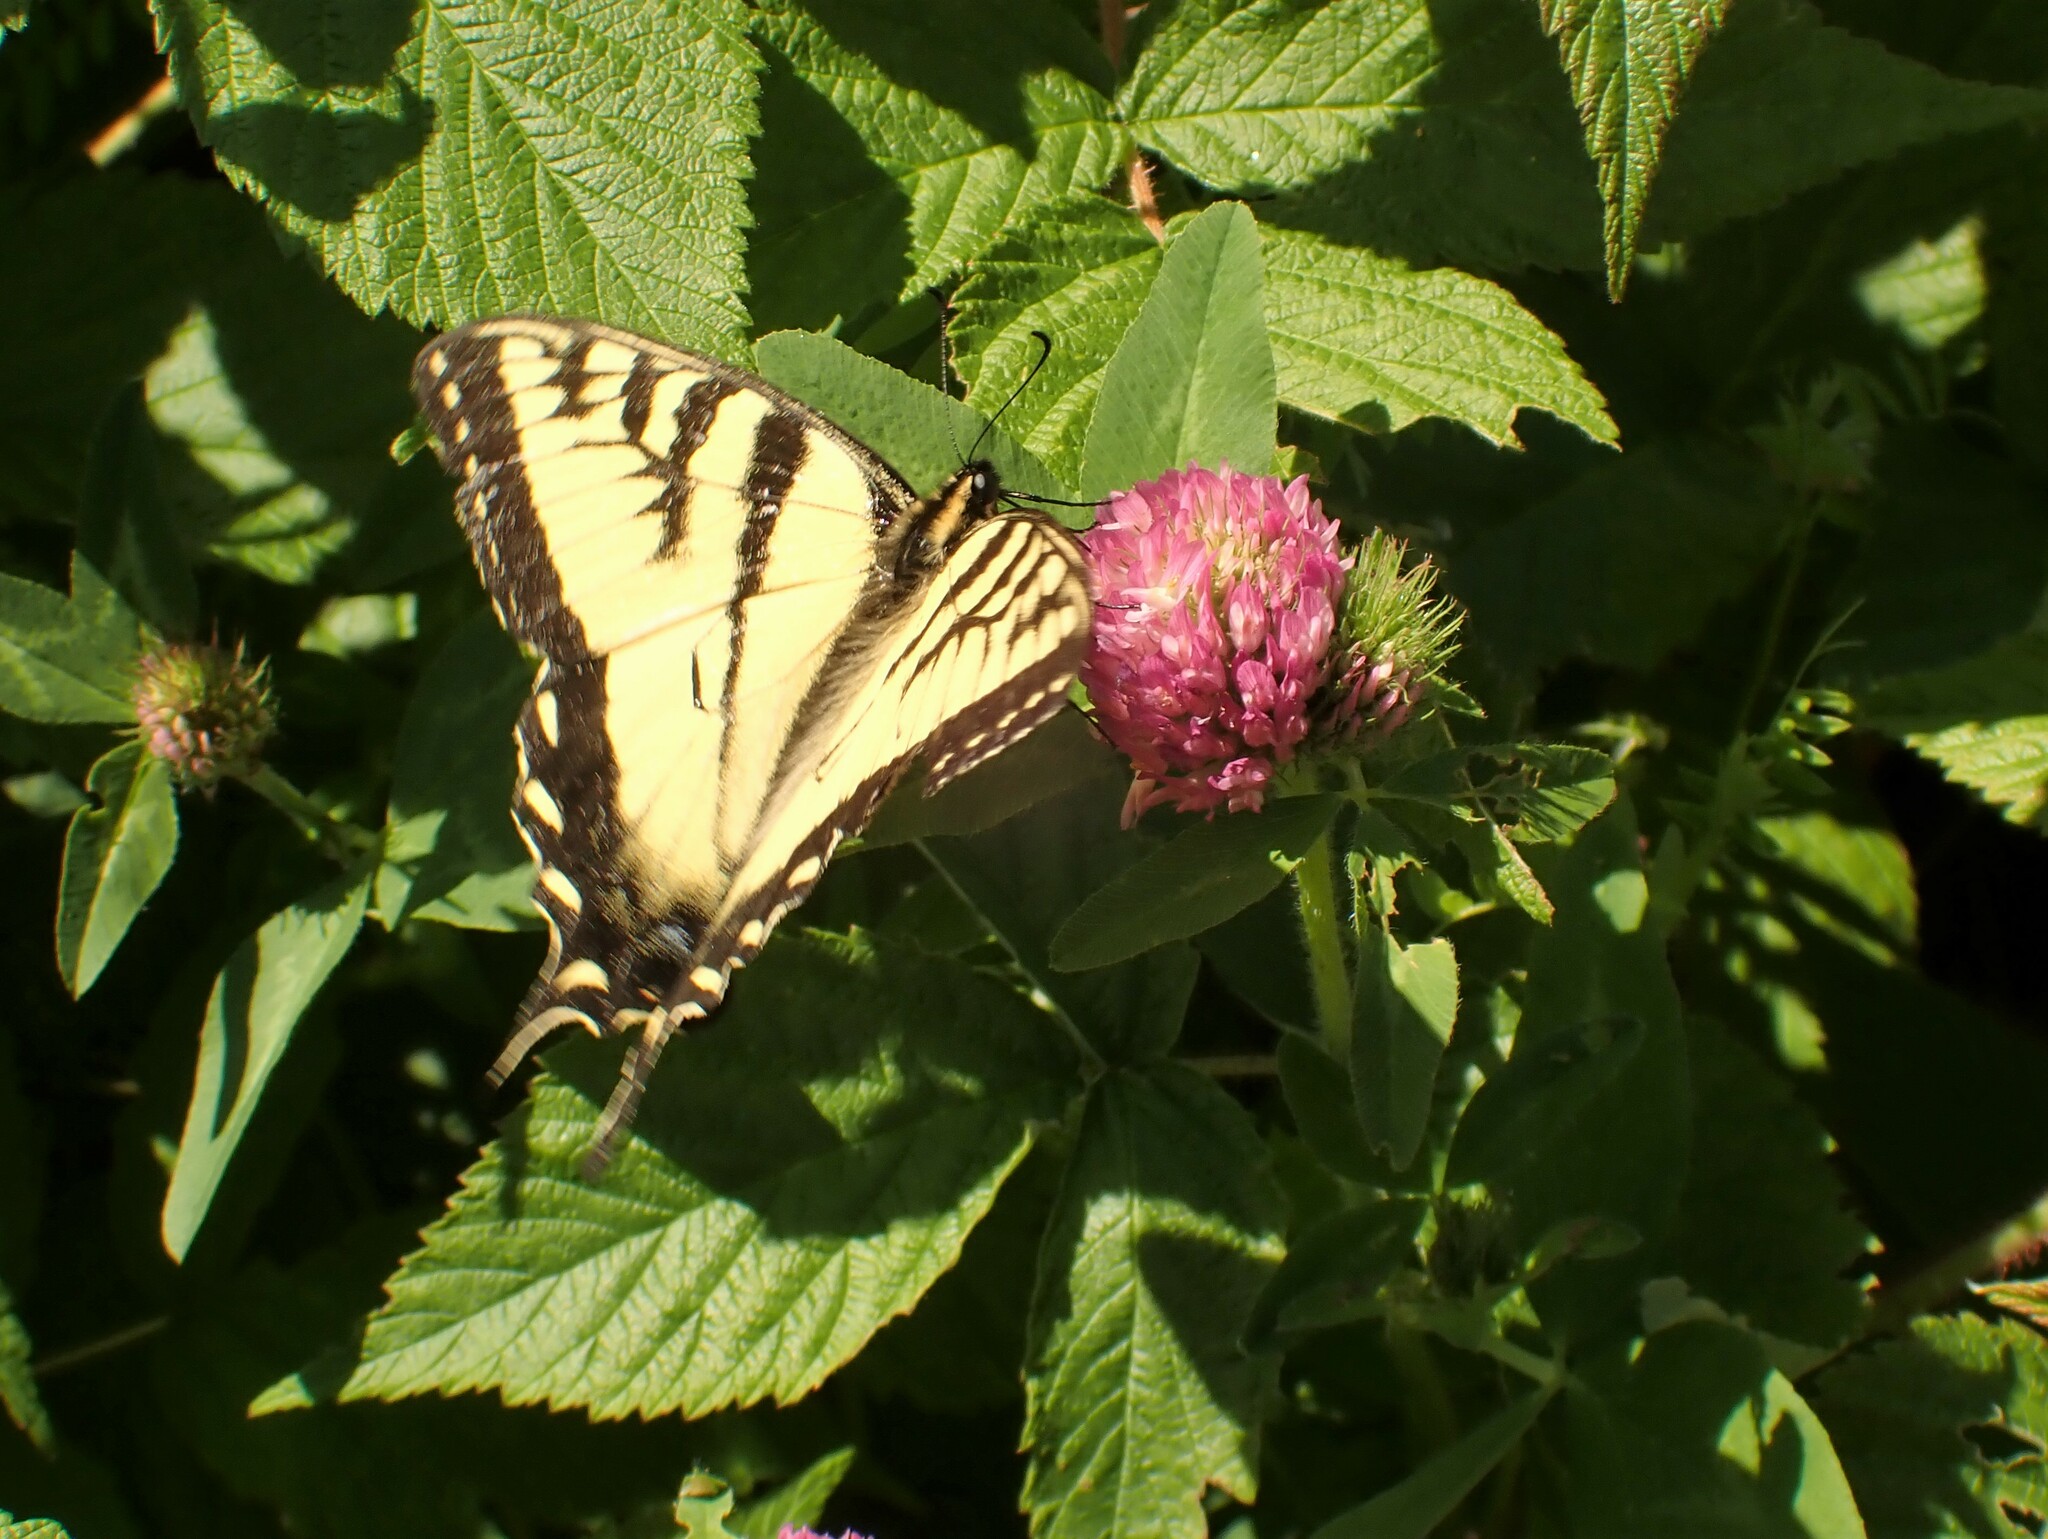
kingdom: Animalia
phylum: Arthropoda
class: Insecta
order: Lepidoptera
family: Papilionidae
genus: Papilio
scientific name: Papilio canadensis
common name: Canadian tiger swallowtail
